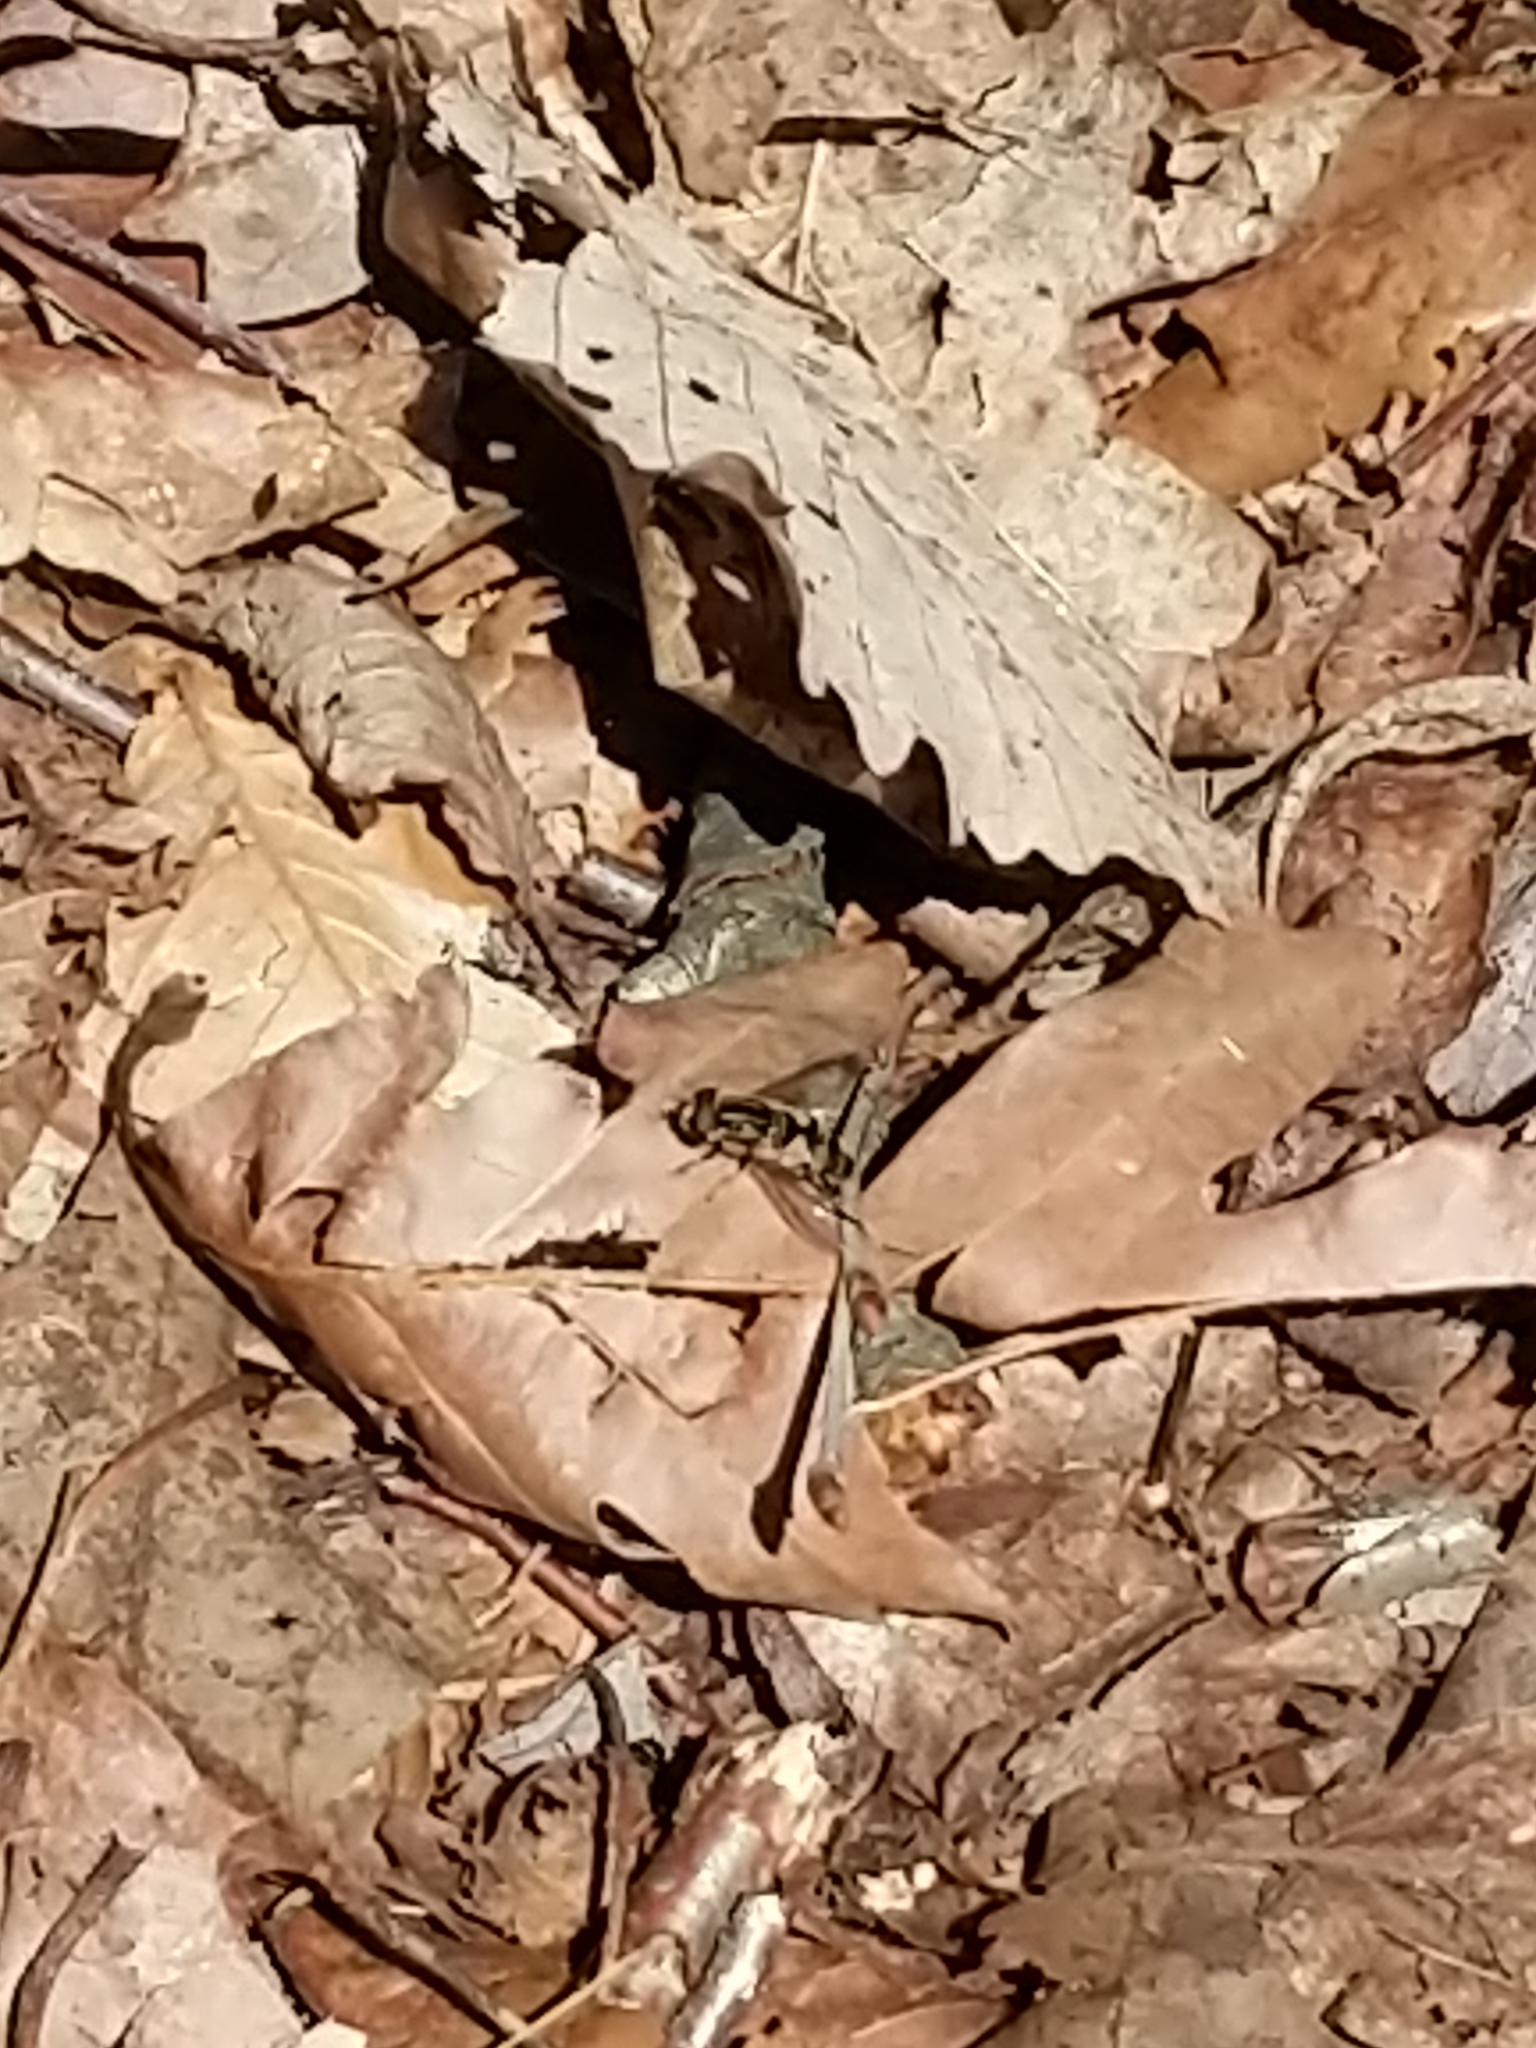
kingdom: Animalia
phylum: Arthropoda
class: Insecta
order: Diptera
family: Syrphidae
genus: Helophilus
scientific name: Helophilus fasciatus
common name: Narrow-headed marsh fly
